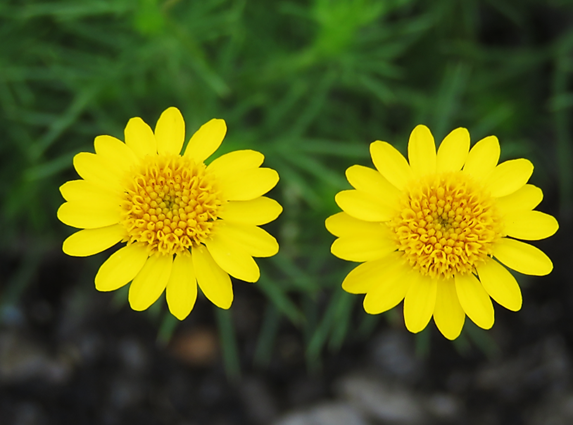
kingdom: Plantae
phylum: Tracheophyta
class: Magnoliopsida
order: Asterales
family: Asteraceae
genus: Thymophylla
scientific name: Thymophylla pentachaeta
